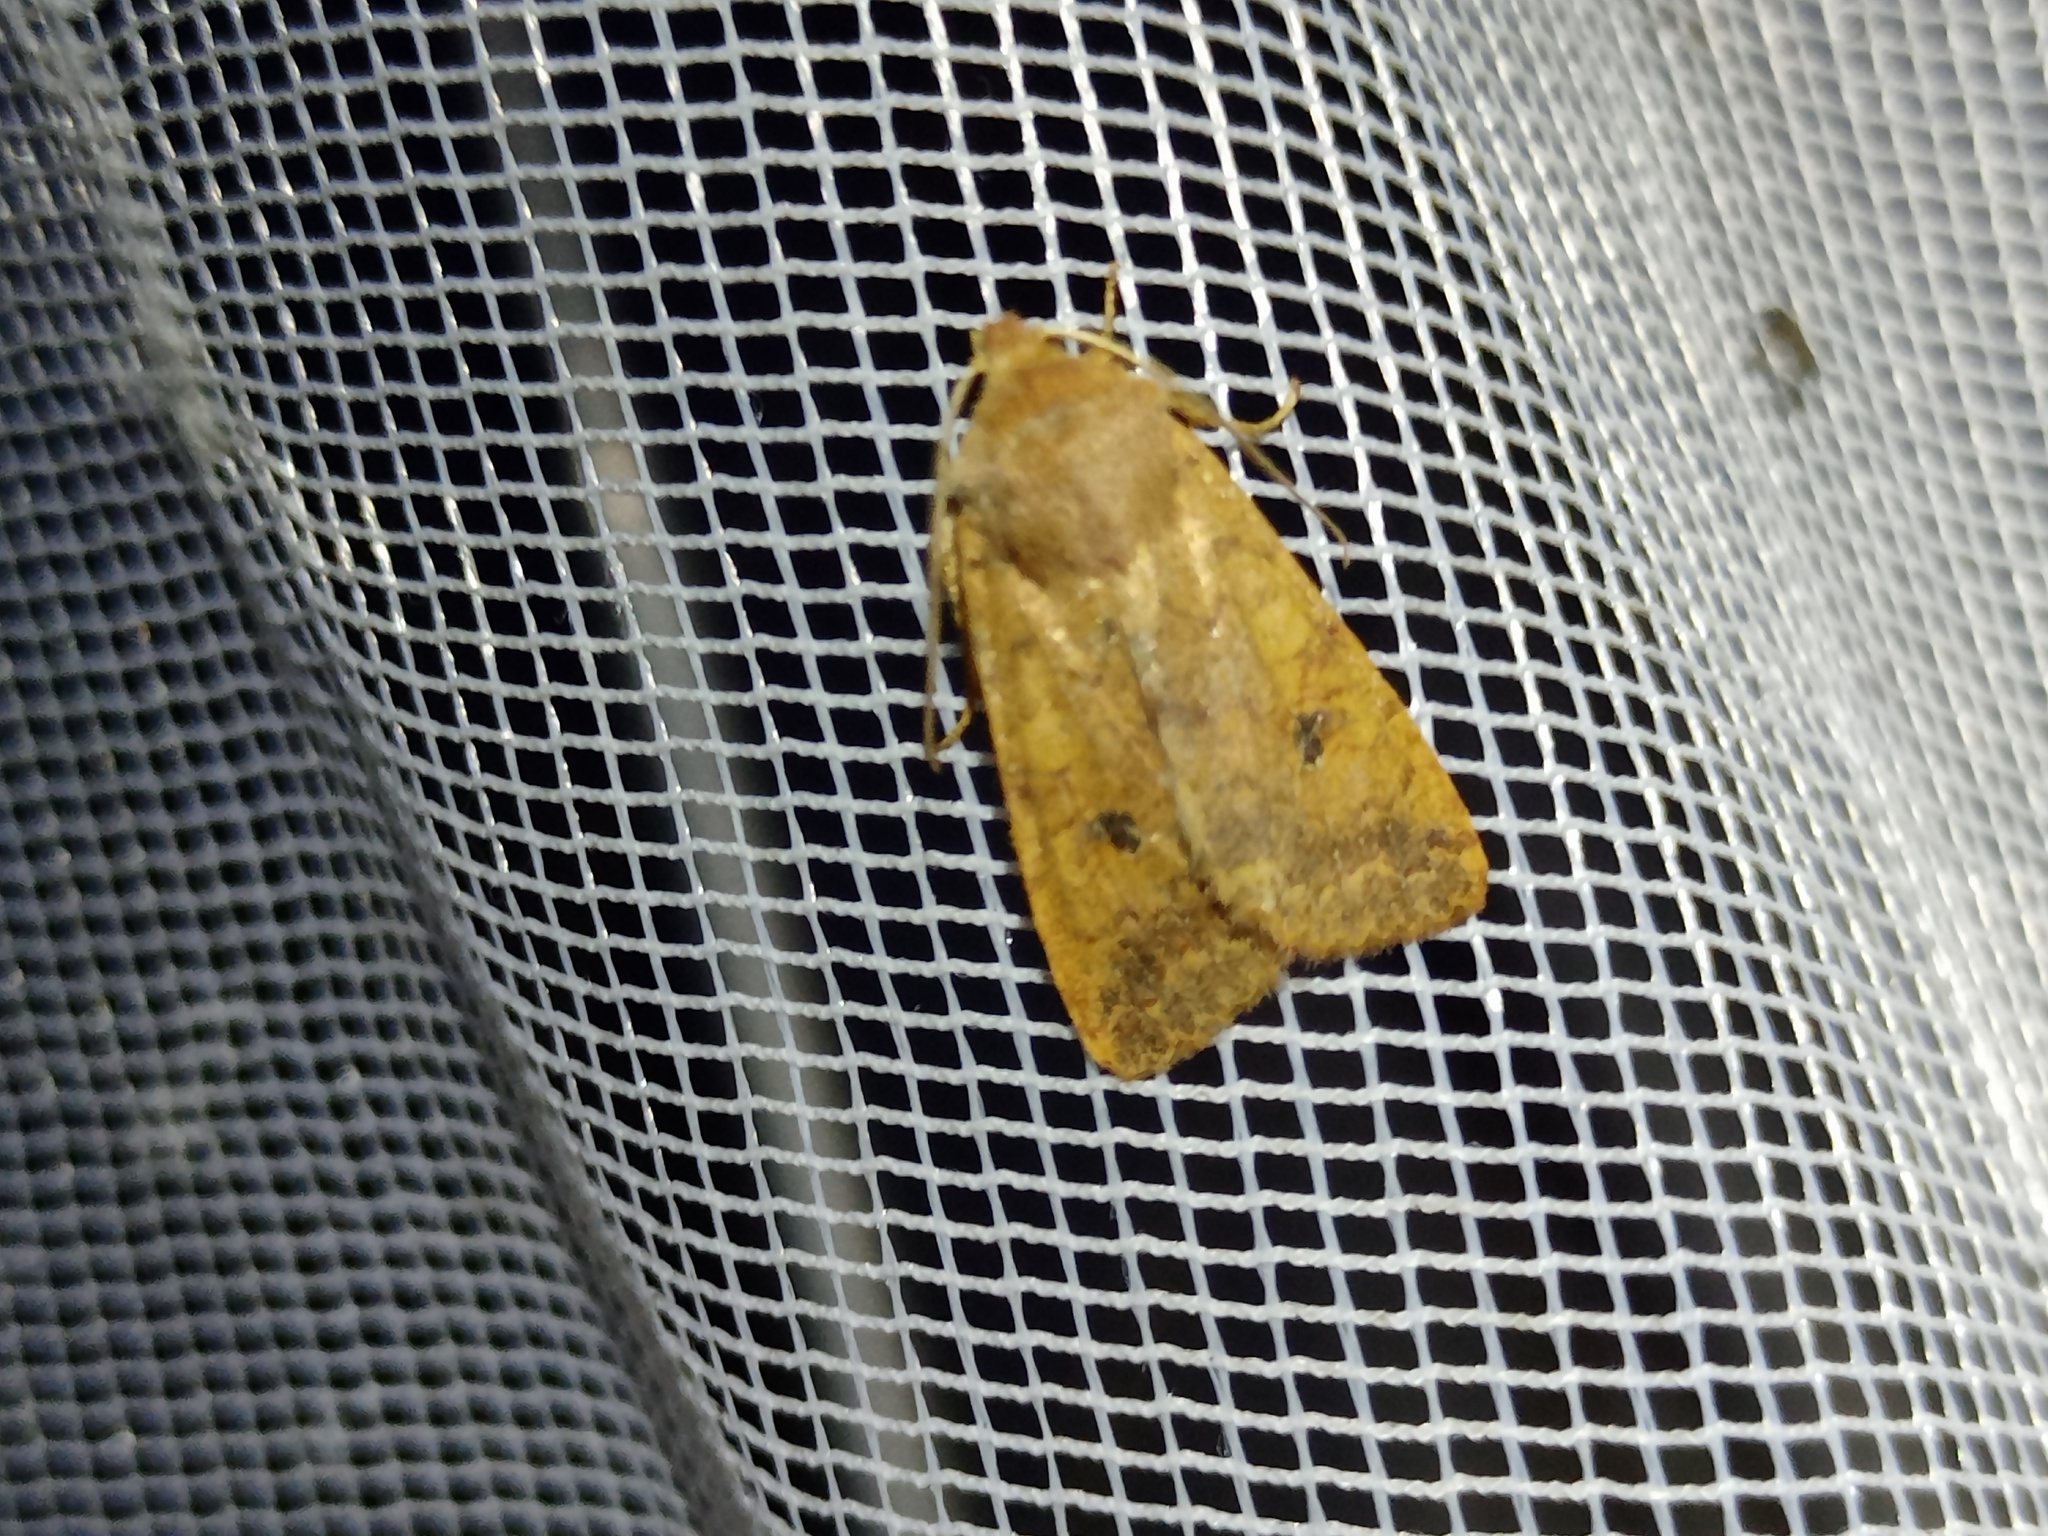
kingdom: Animalia
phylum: Arthropoda
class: Insecta
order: Lepidoptera
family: Noctuidae
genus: Sunira
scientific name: Sunira circellaris
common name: Brick
